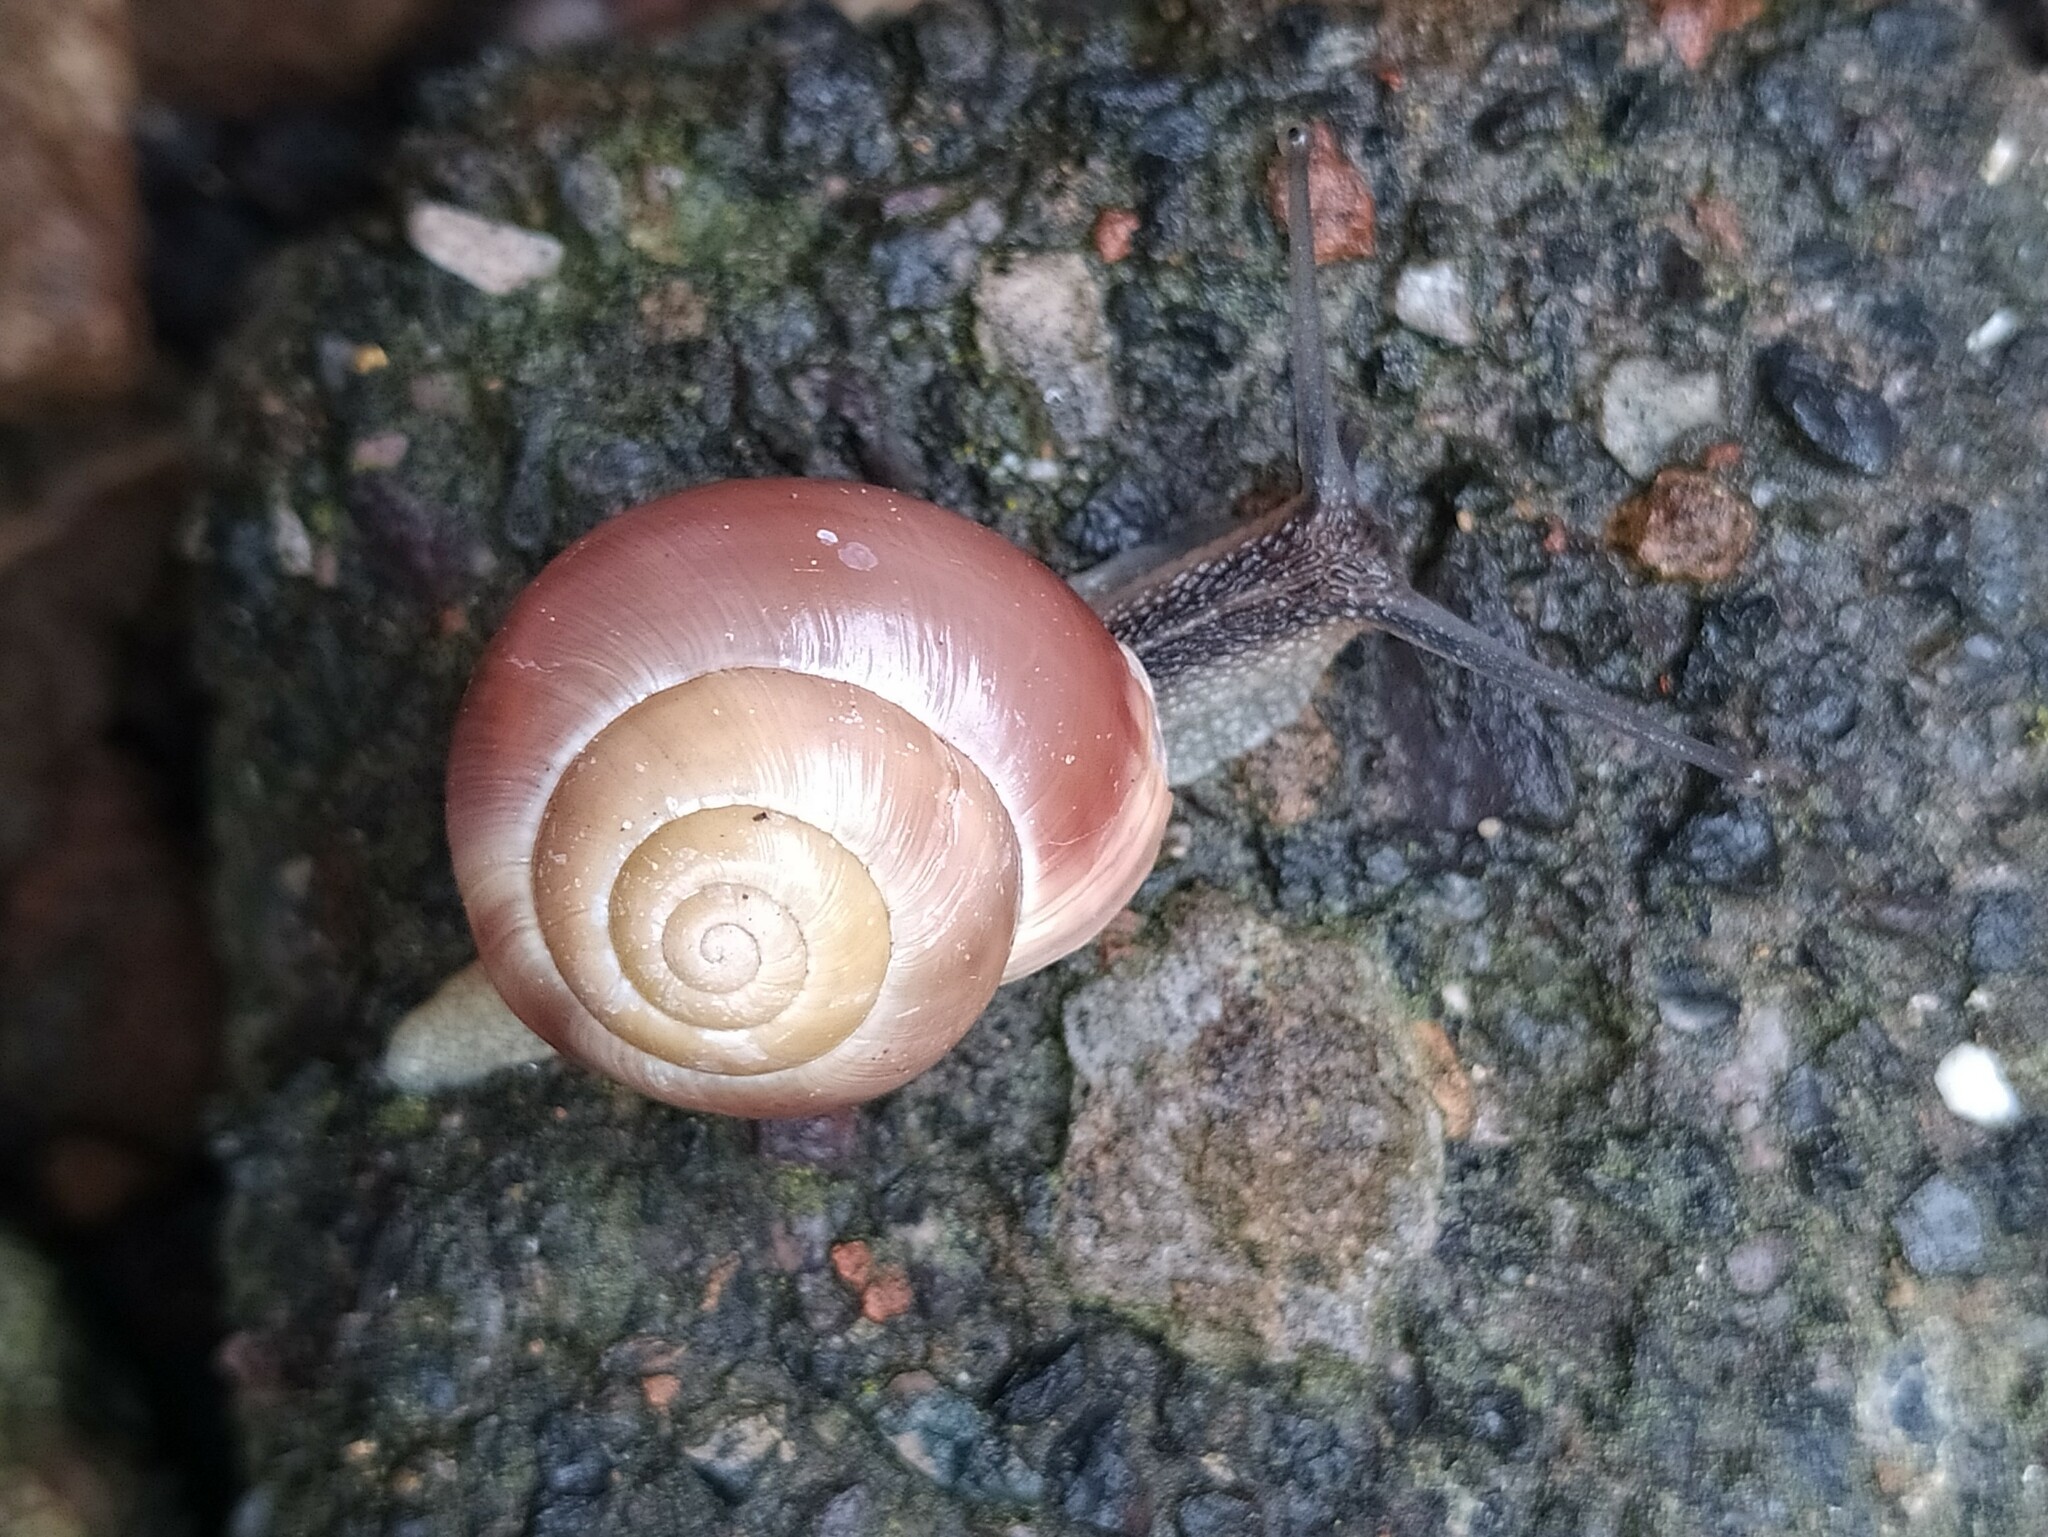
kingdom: Animalia
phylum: Mollusca
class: Gastropoda
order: Stylommatophora
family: Helicidae
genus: Cepaea
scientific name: Cepaea hortensis
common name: White-lip gardensnail
